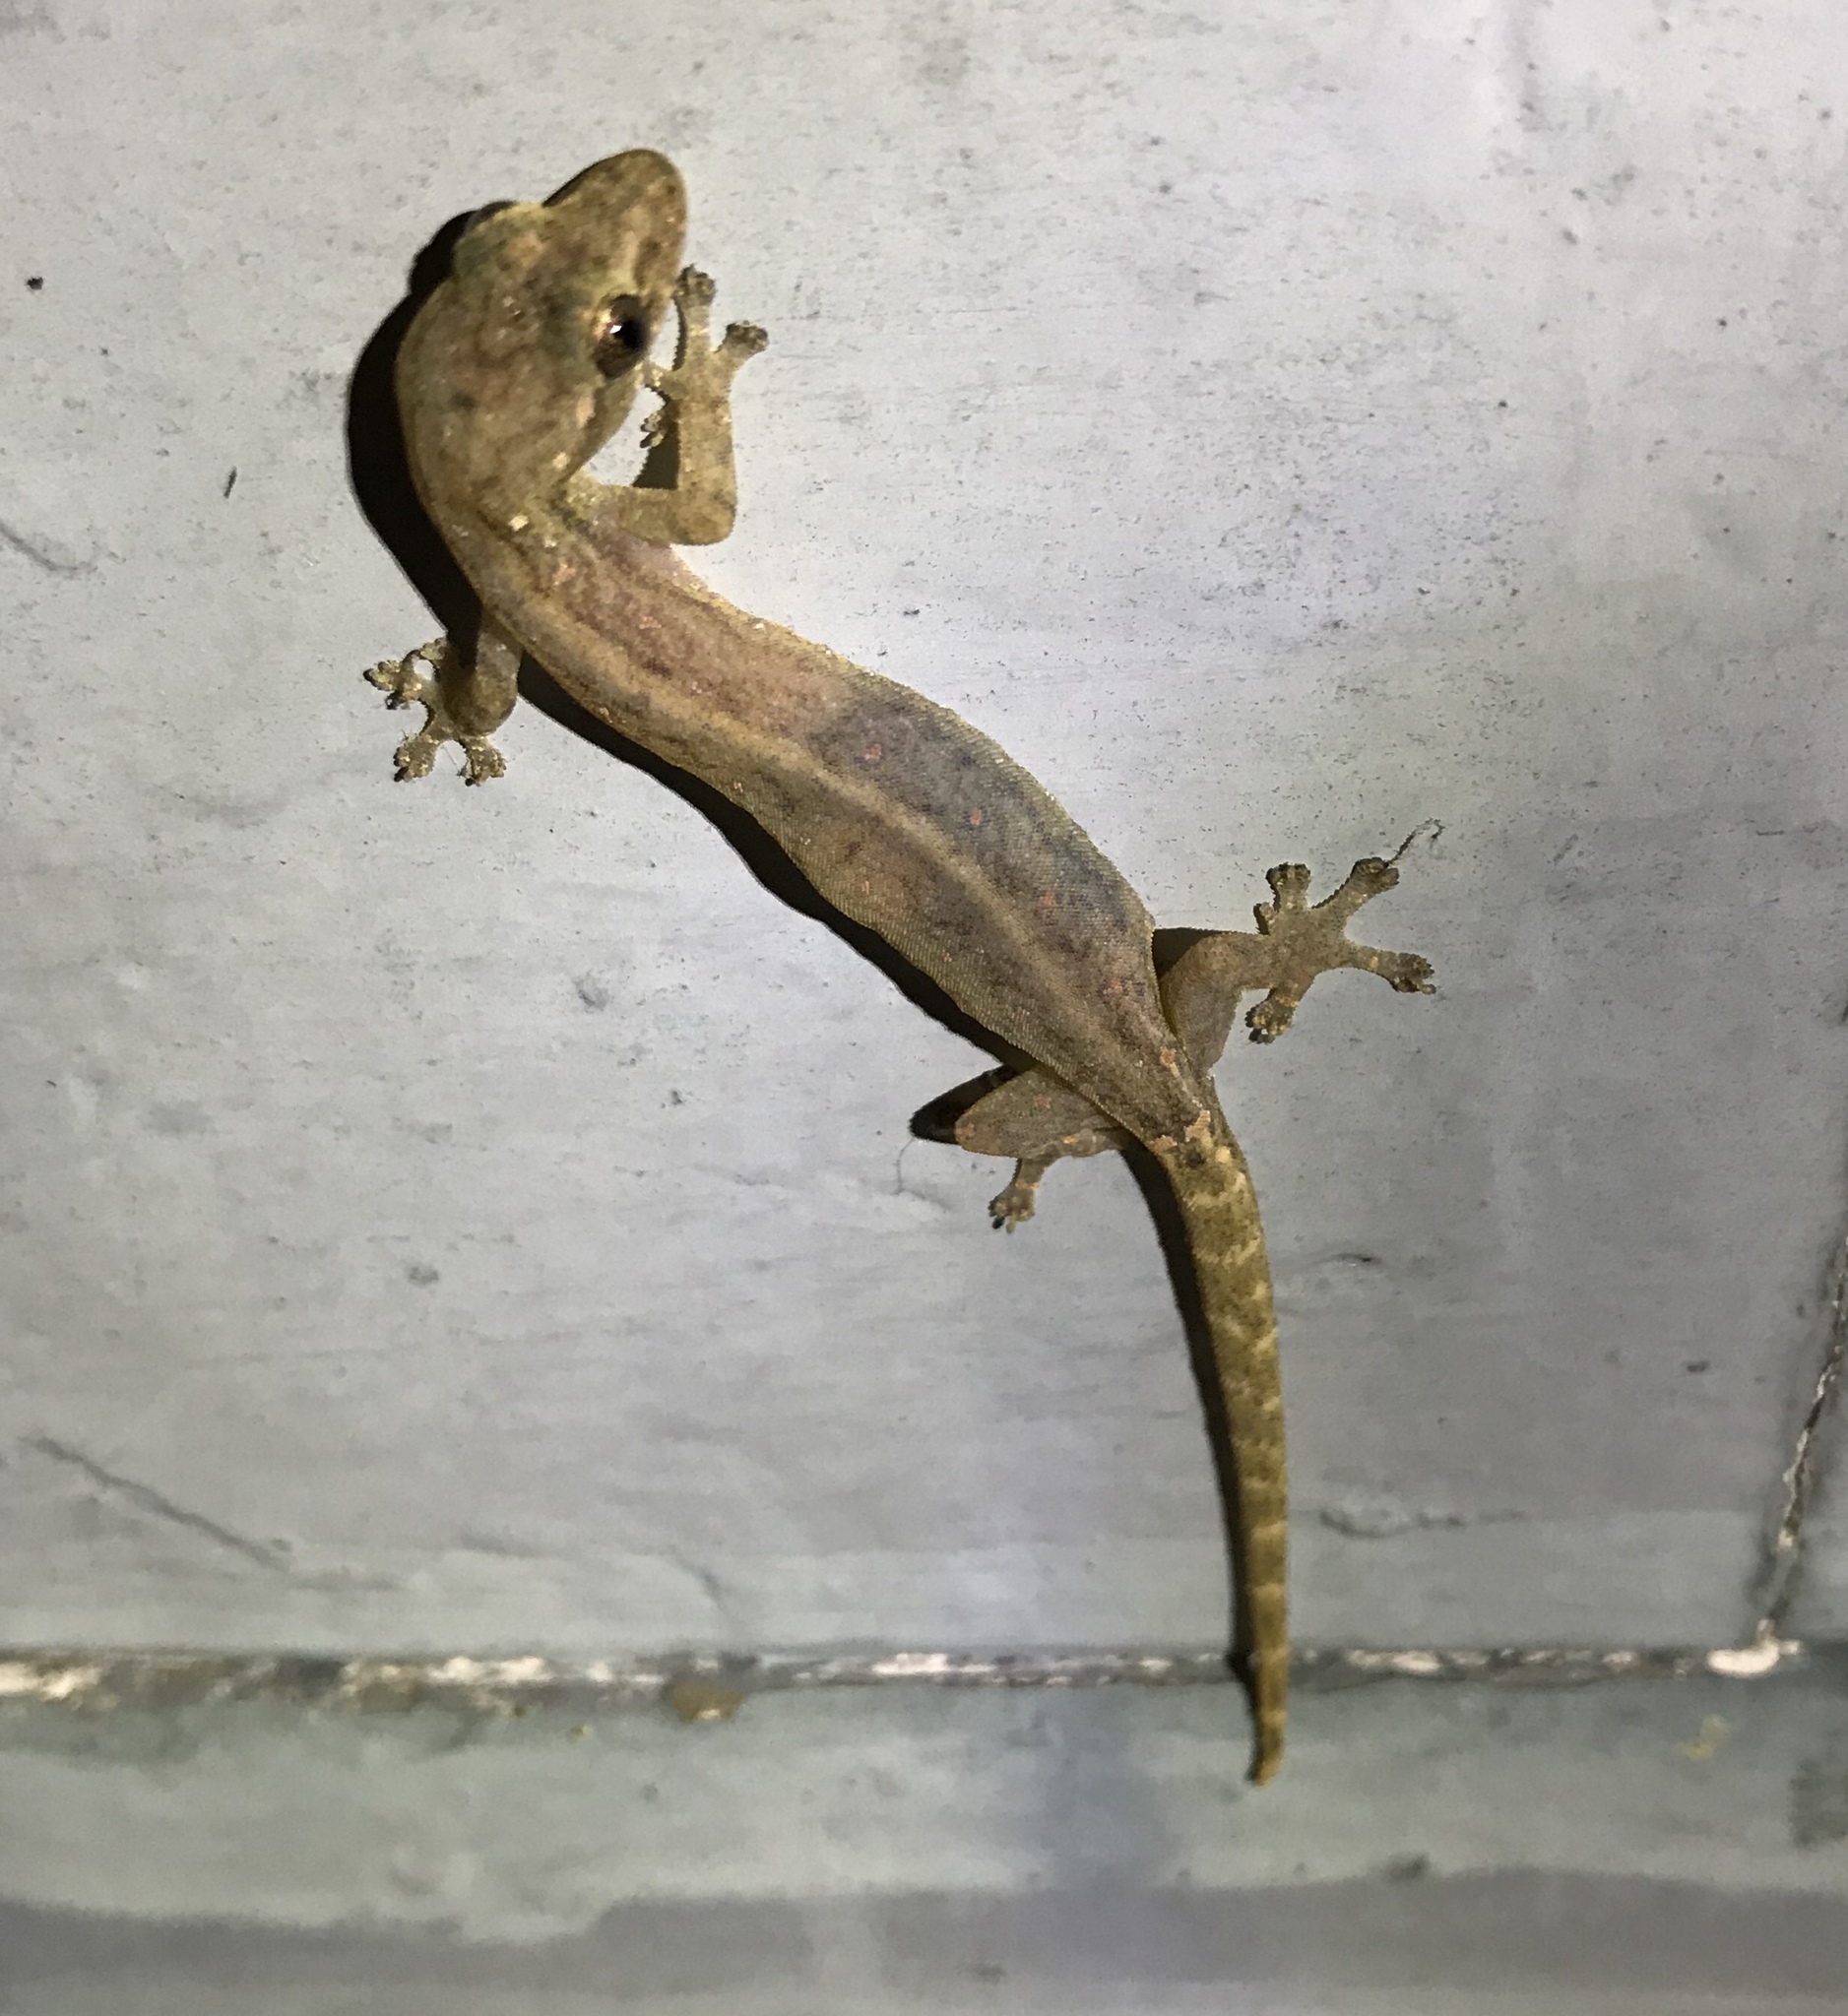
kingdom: Animalia
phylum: Chordata
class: Squamata
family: Gekkonidae
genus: Hemiphyllodactylus
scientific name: Hemiphyllodactylus typus
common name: Common dwarf gecko
